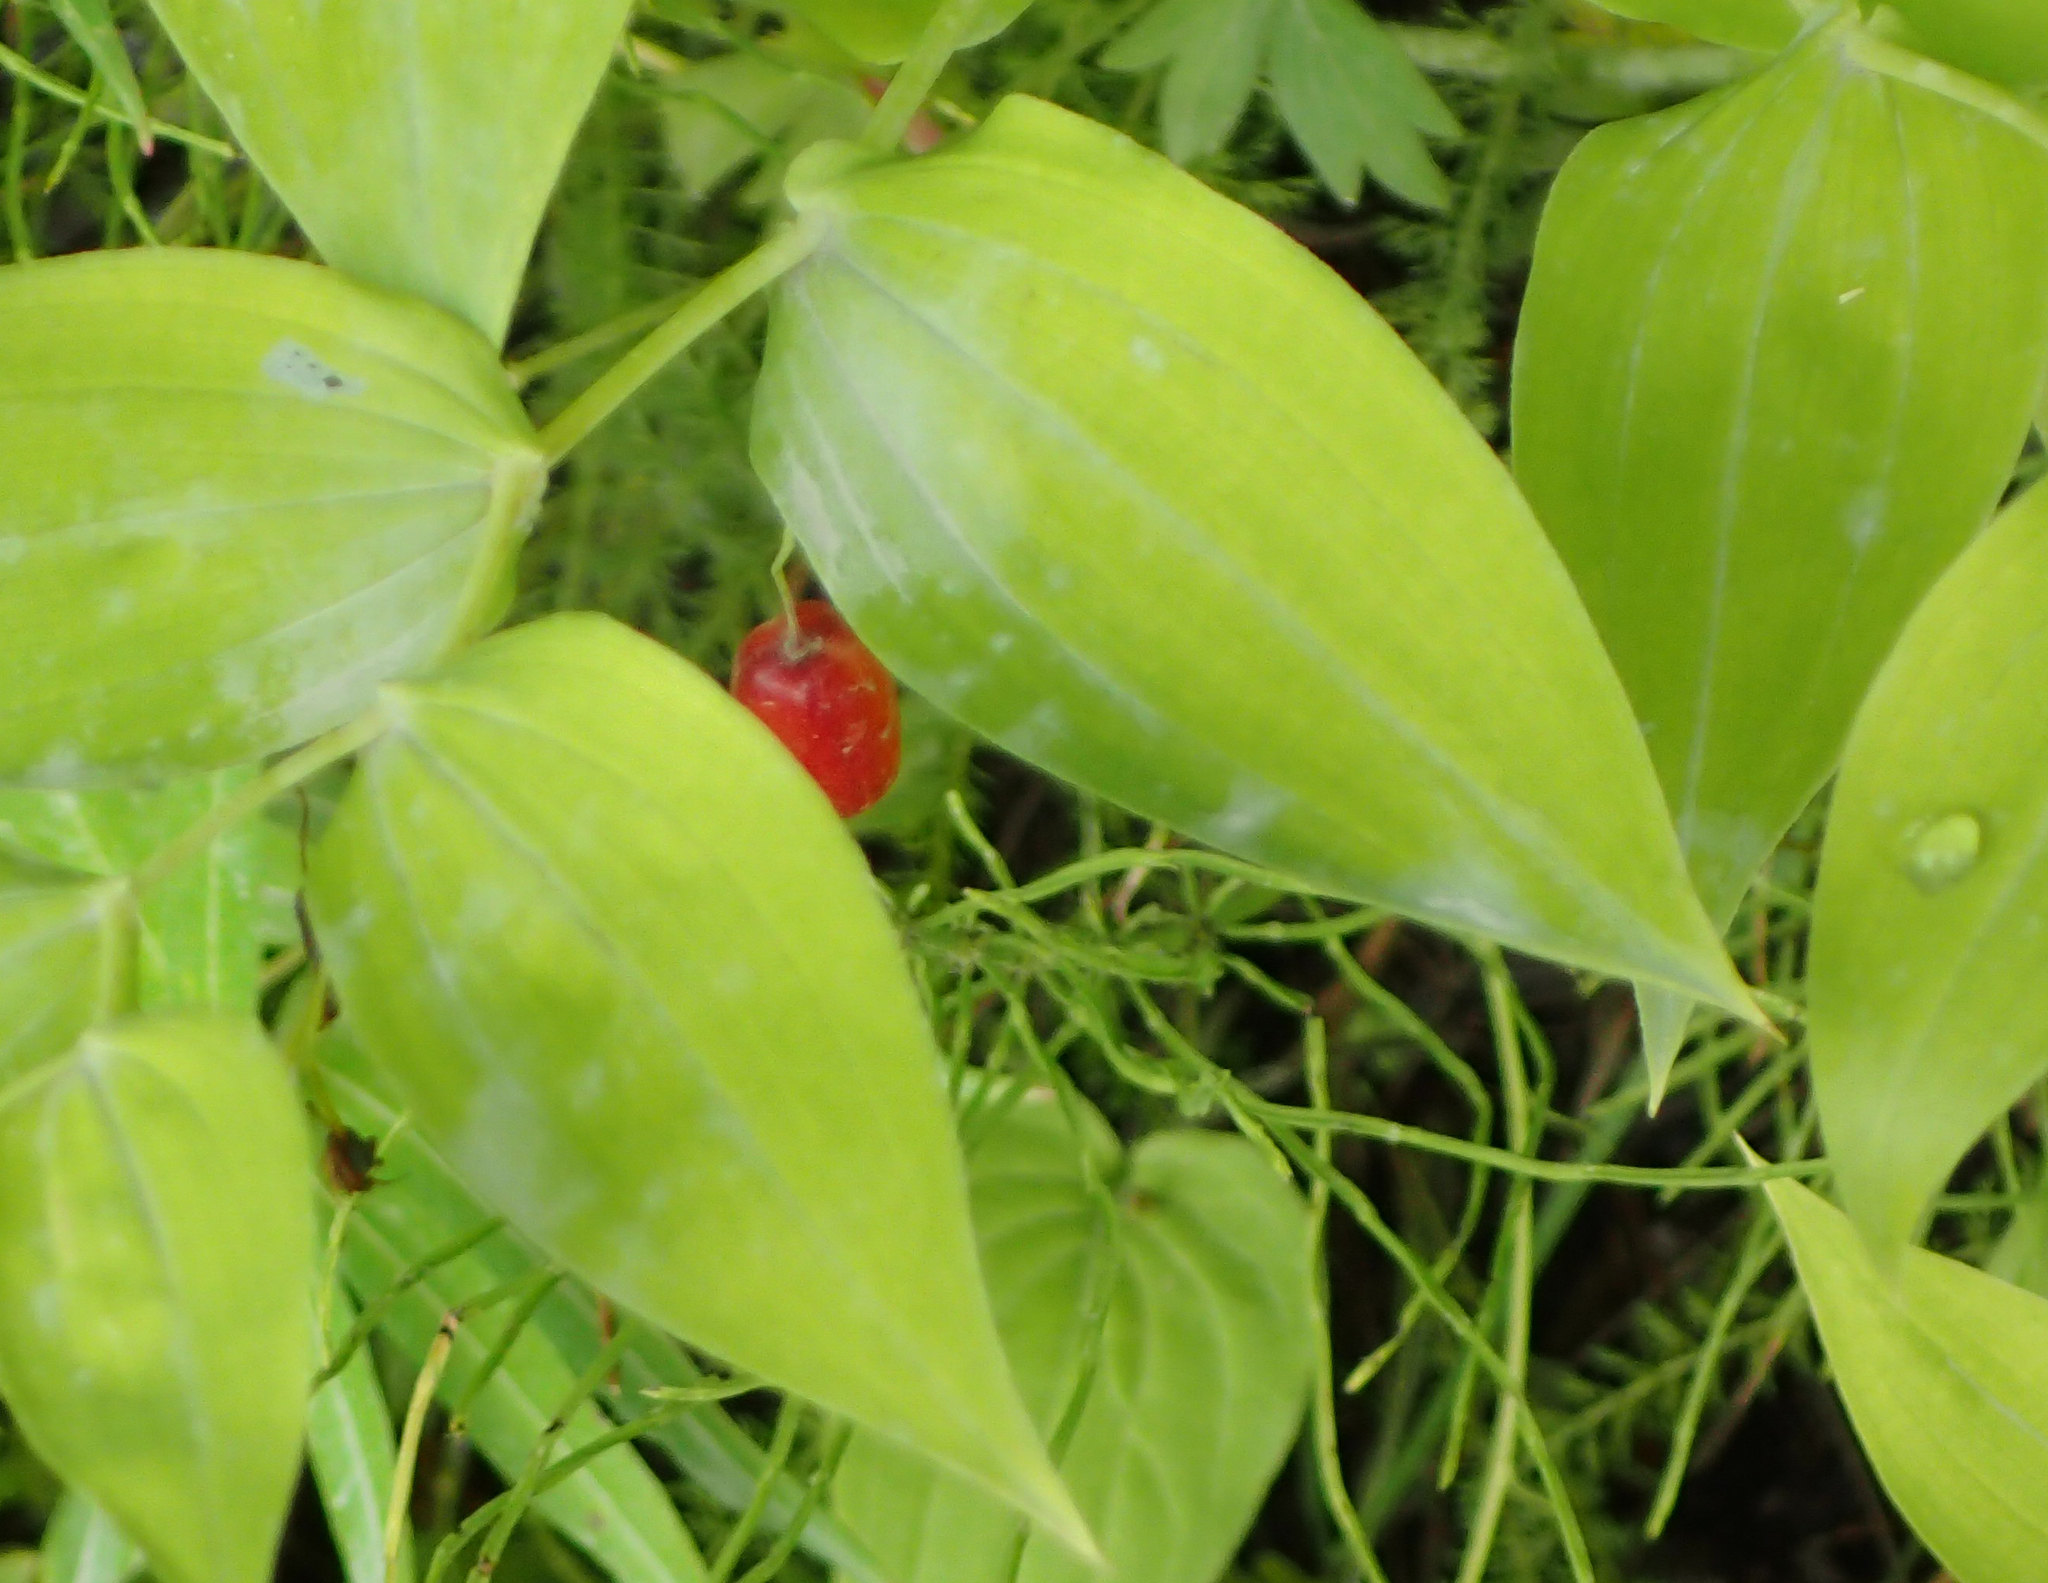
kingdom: Plantae
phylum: Tracheophyta
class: Liliopsida
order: Liliales
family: Liliaceae
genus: Streptopus
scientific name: Streptopus amplexifolius
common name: Clasp twisted stalk
